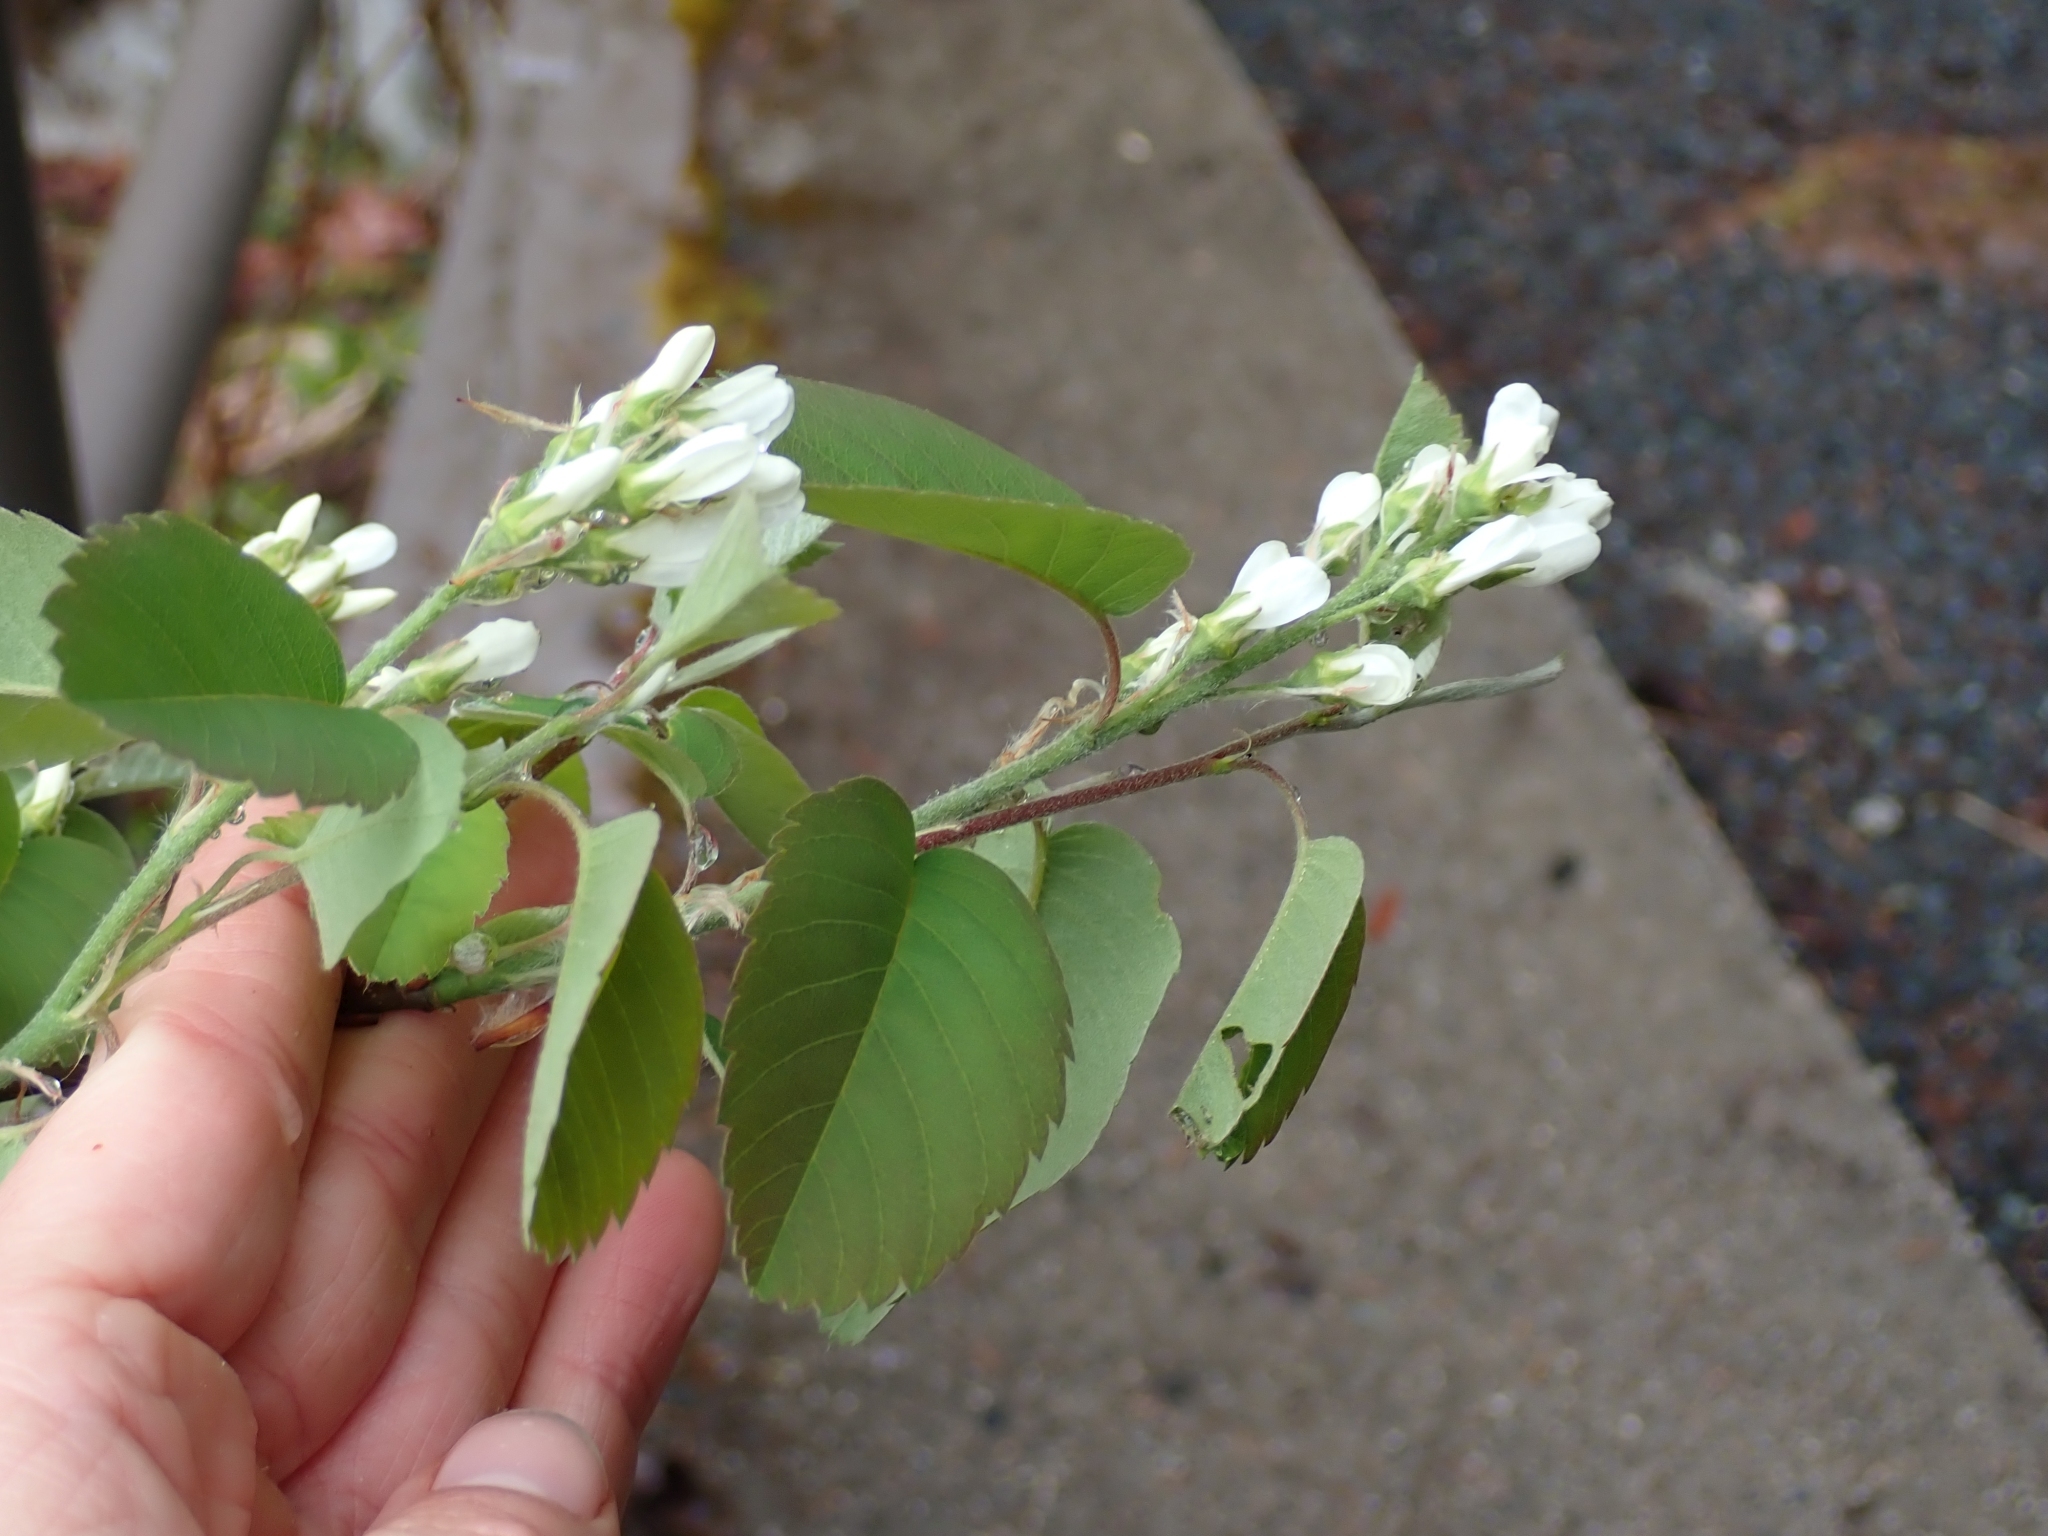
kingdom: Plantae
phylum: Tracheophyta
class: Magnoliopsida
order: Rosales
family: Rosaceae
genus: Amelanchier
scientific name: Amelanchier alnifolia
